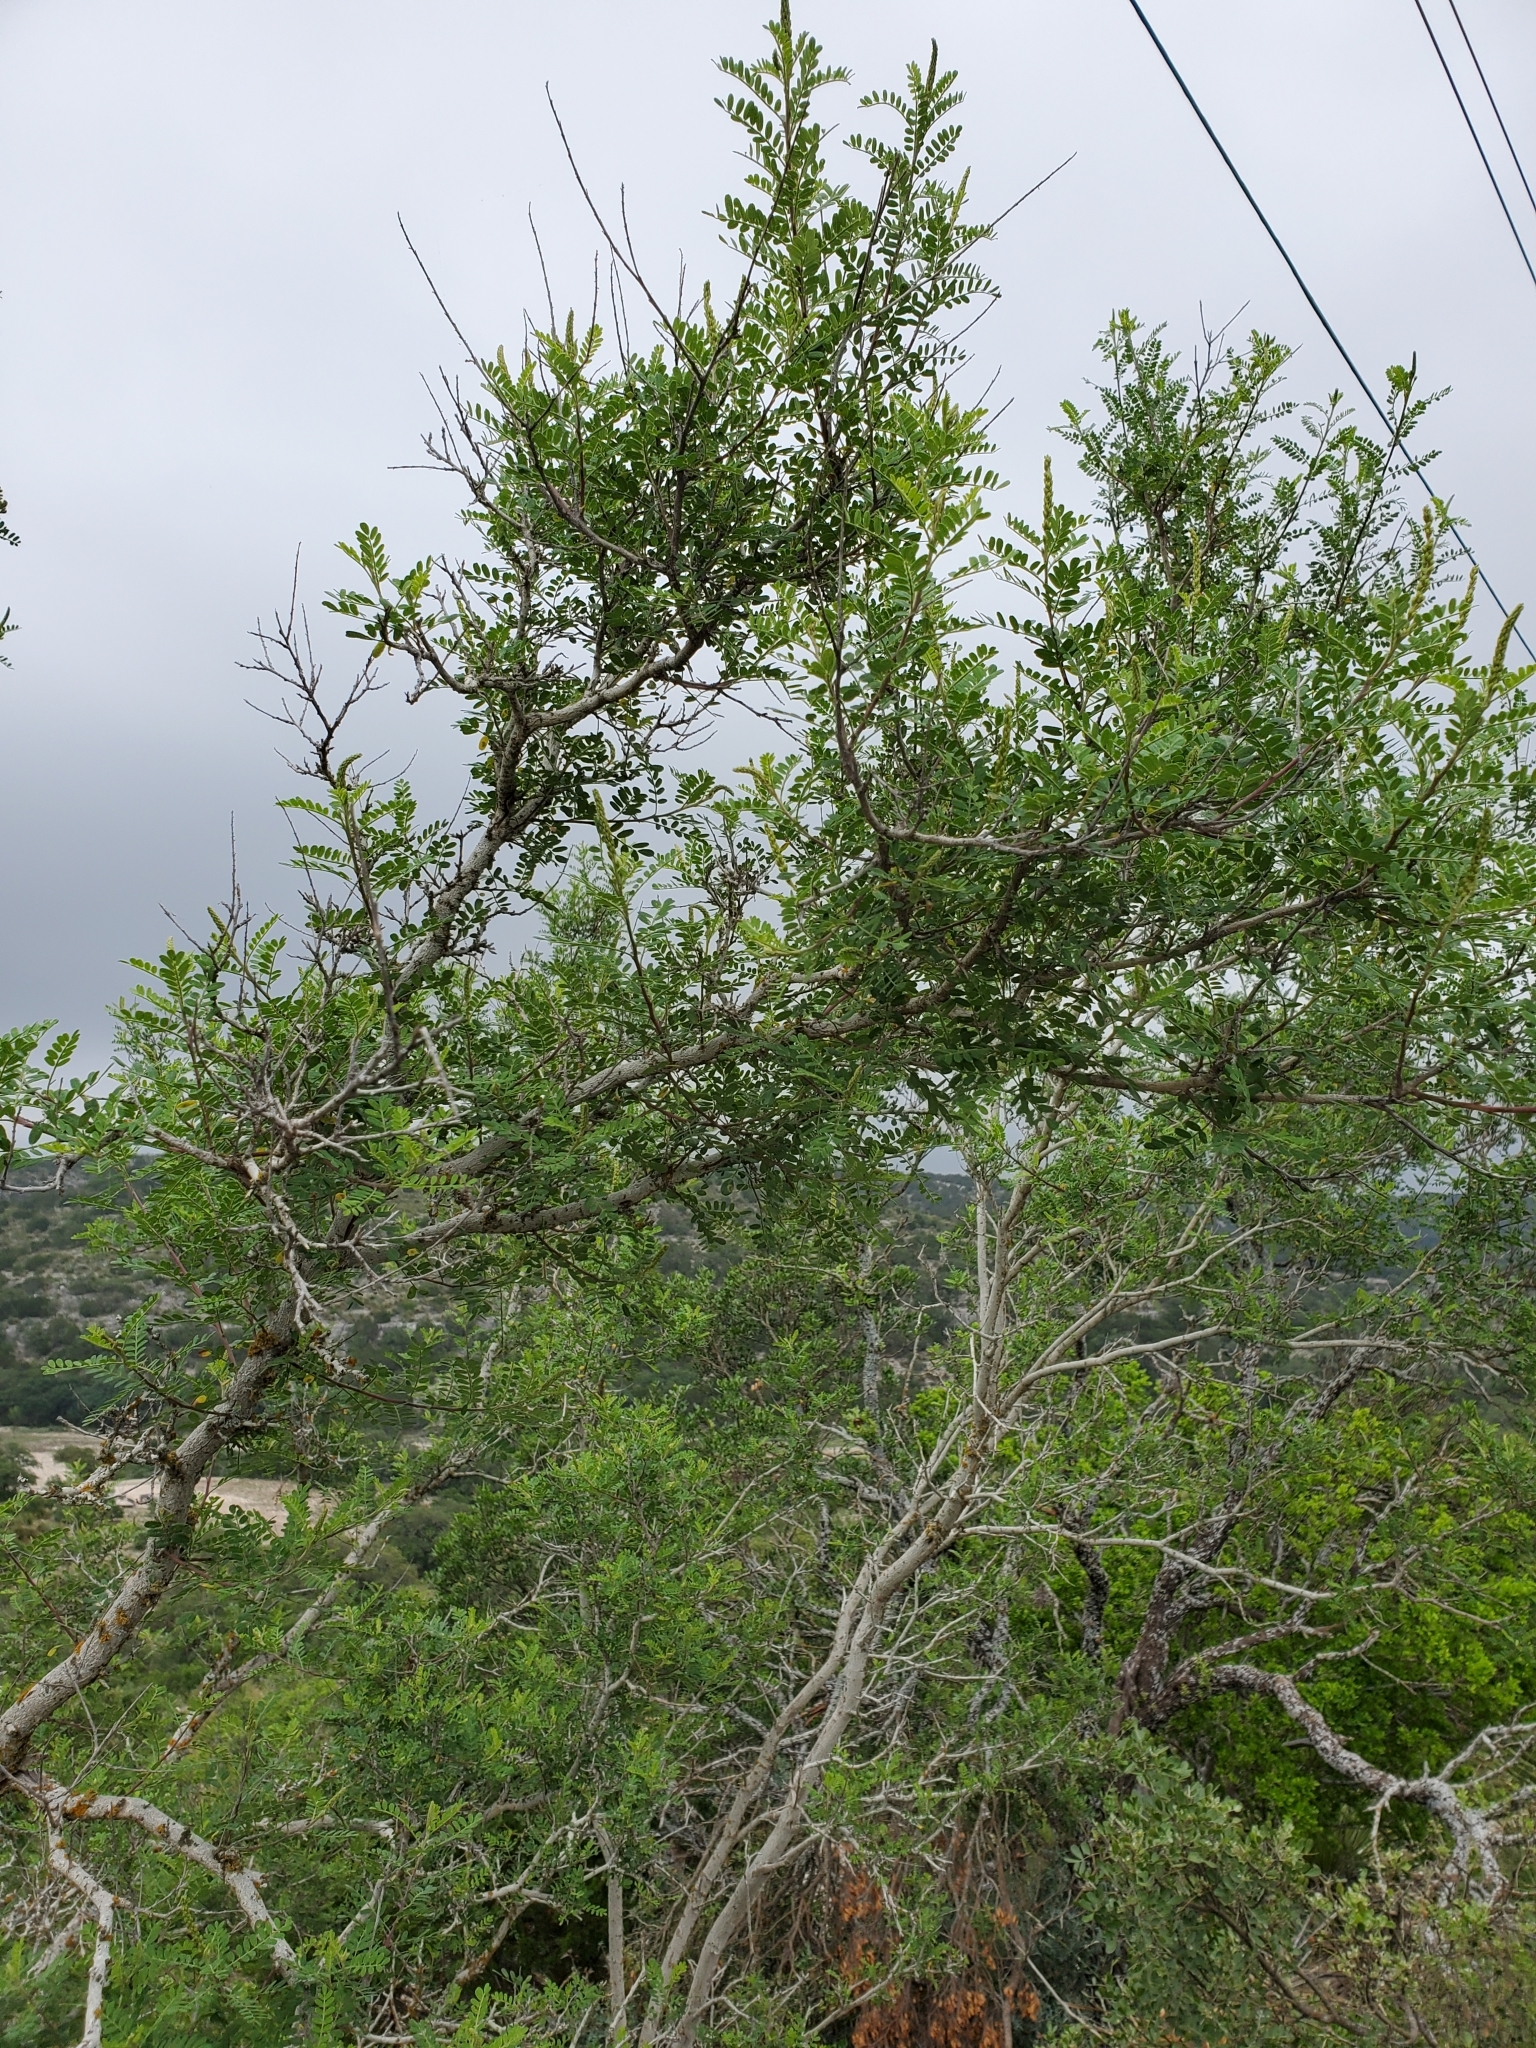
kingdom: Plantae
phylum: Tracheophyta
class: Magnoliopsida
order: Fabales
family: Fabaceae
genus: Eysenhardtia
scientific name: Eysenhardtia texana
